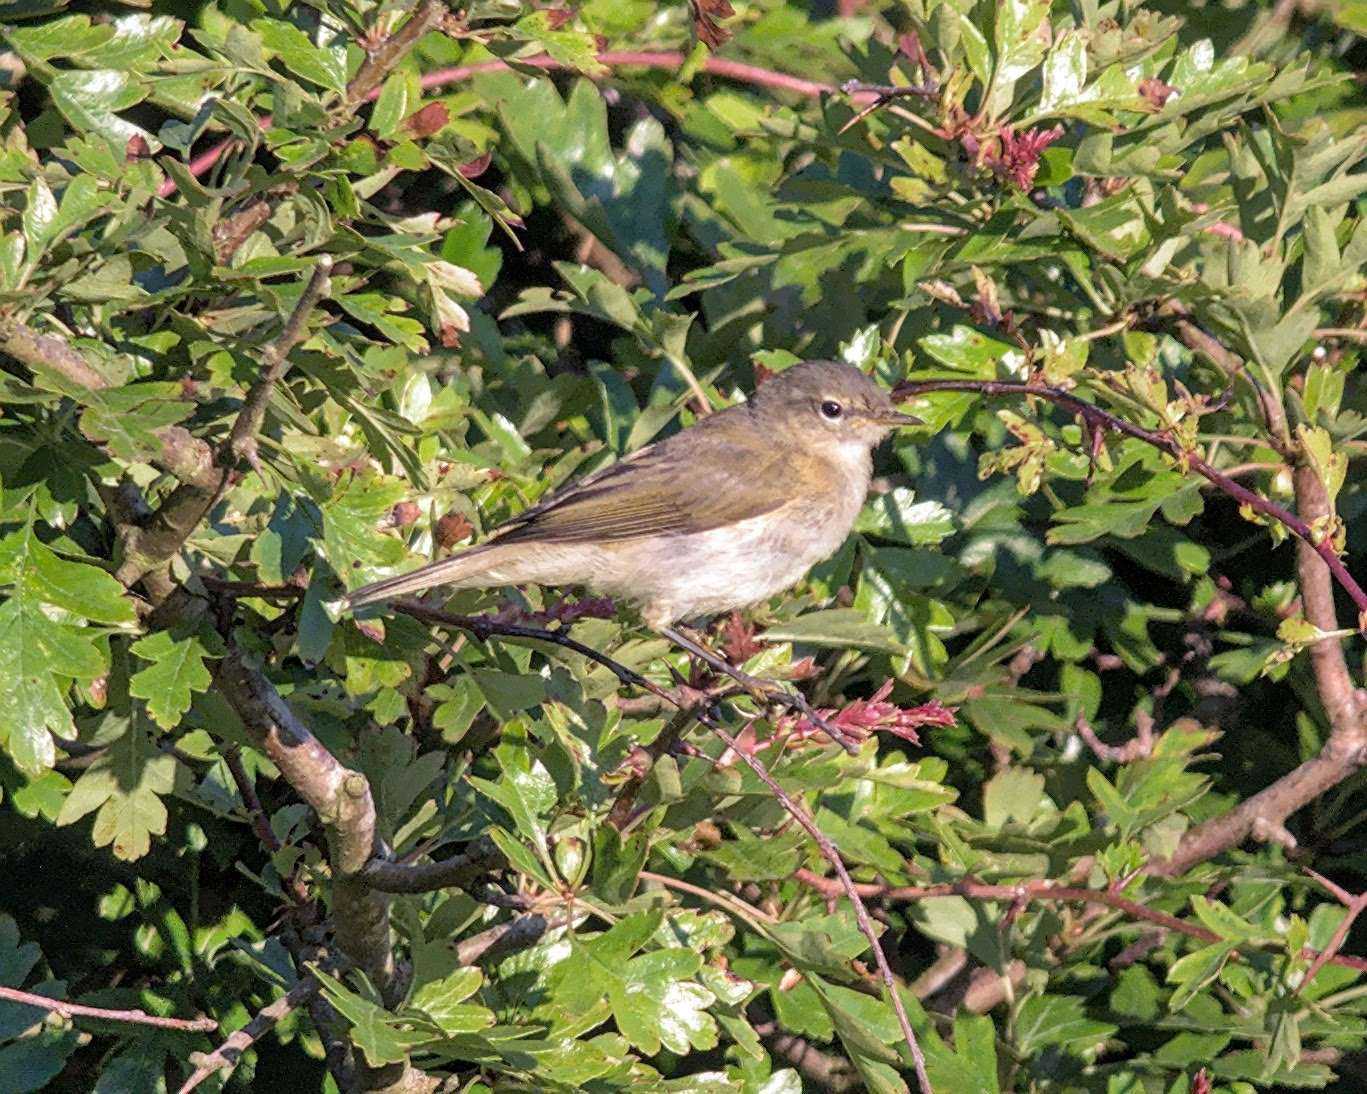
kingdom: Animalia
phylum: Chordata
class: Aves
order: Passeriformes
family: Phylloscopidae
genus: Phylloscopus
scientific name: Phylloscopus collybita
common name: Common chiffchaff
